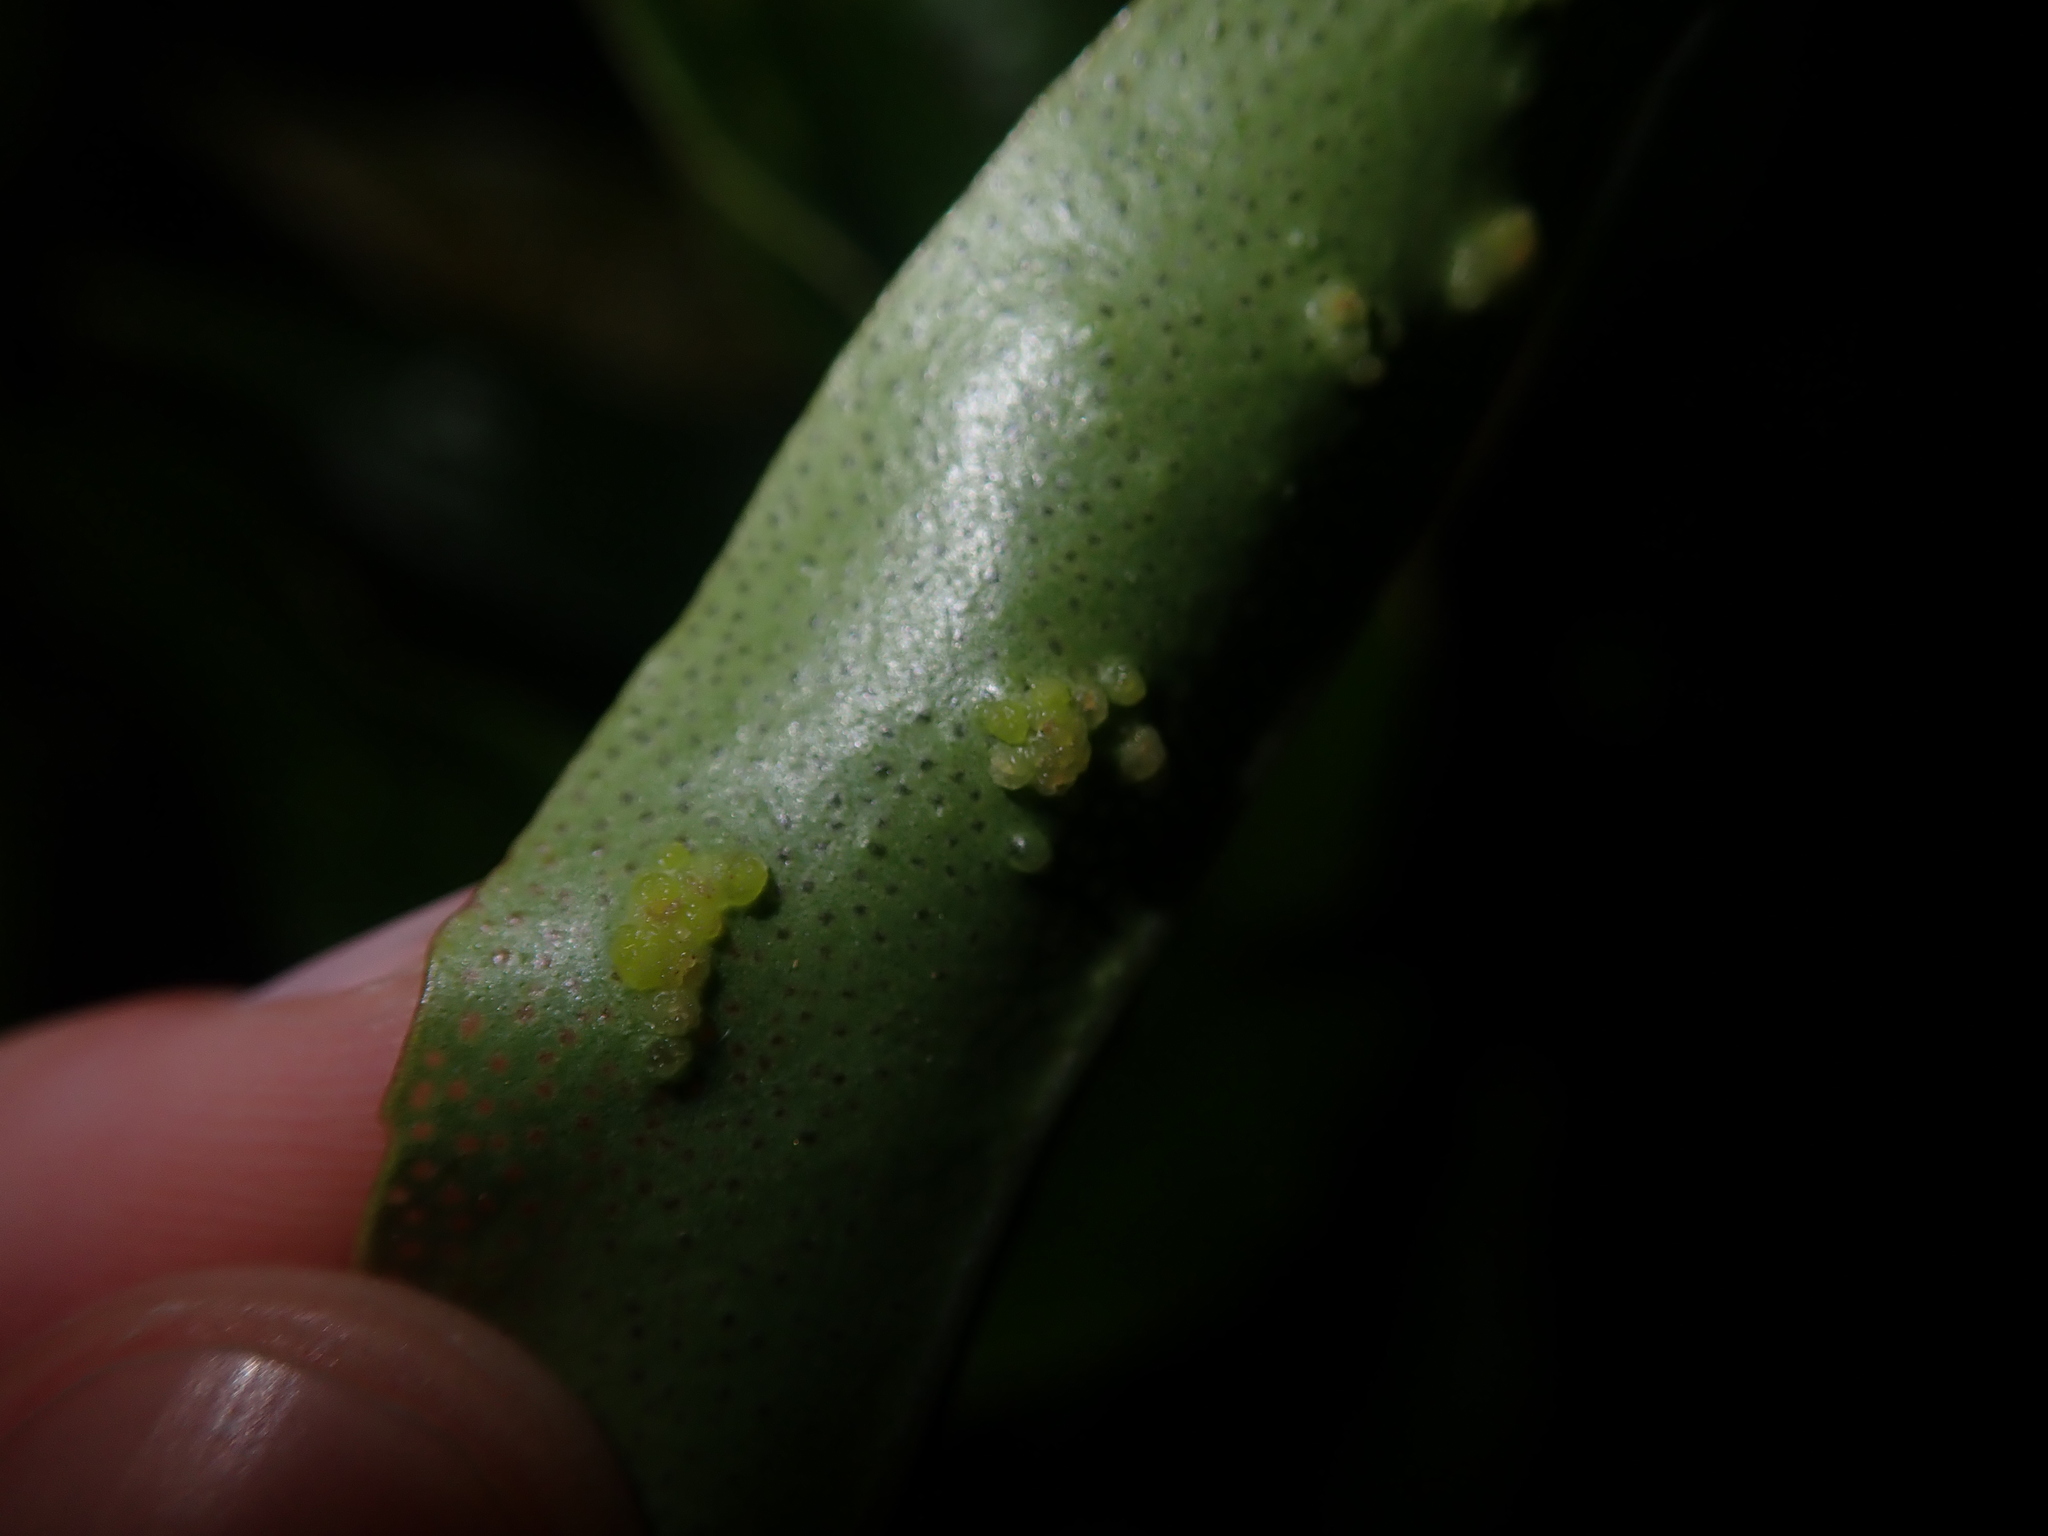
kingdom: Animalia
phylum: Arthropoda
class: Arachnida
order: Trombidiformes
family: Eriophyidae
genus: Aceria
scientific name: Aceria healyi
